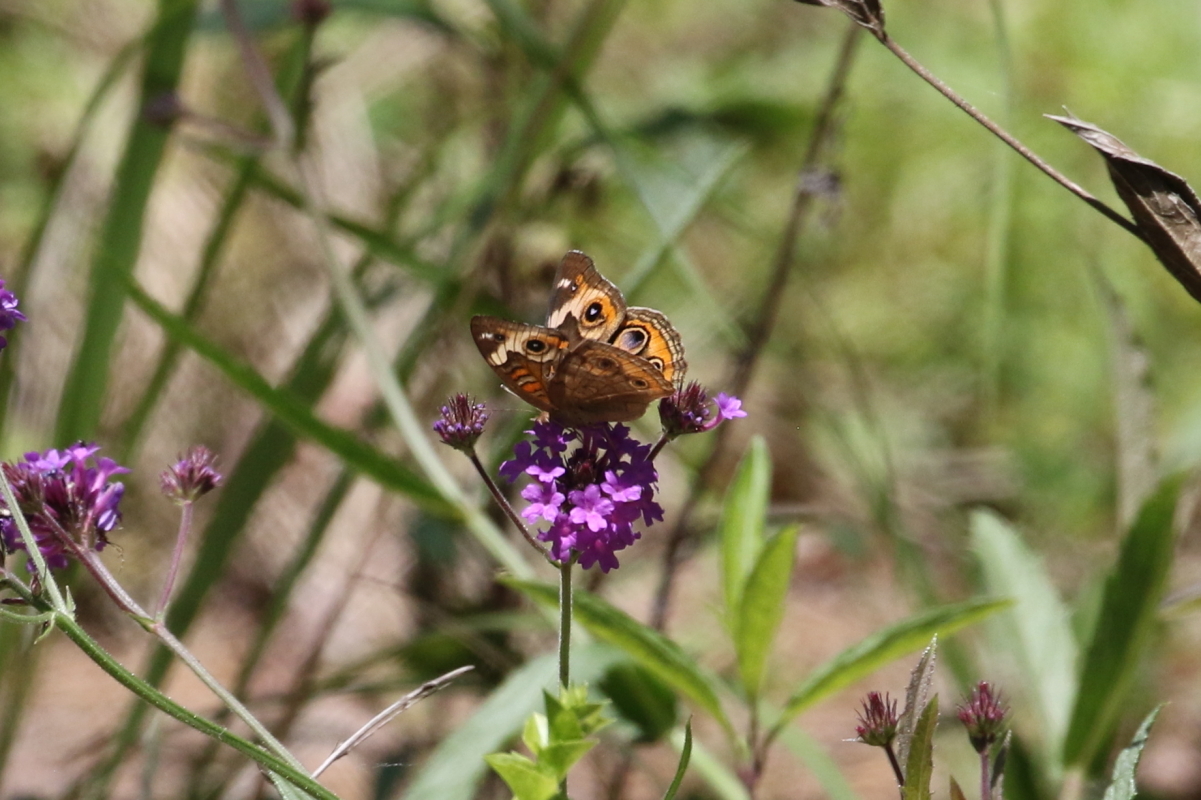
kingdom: Animalia
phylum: Arthropoda
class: Insecta
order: Lepidoptera
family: Nymphalidae
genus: Junonia
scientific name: Junonia coenia
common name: Common buckeye
